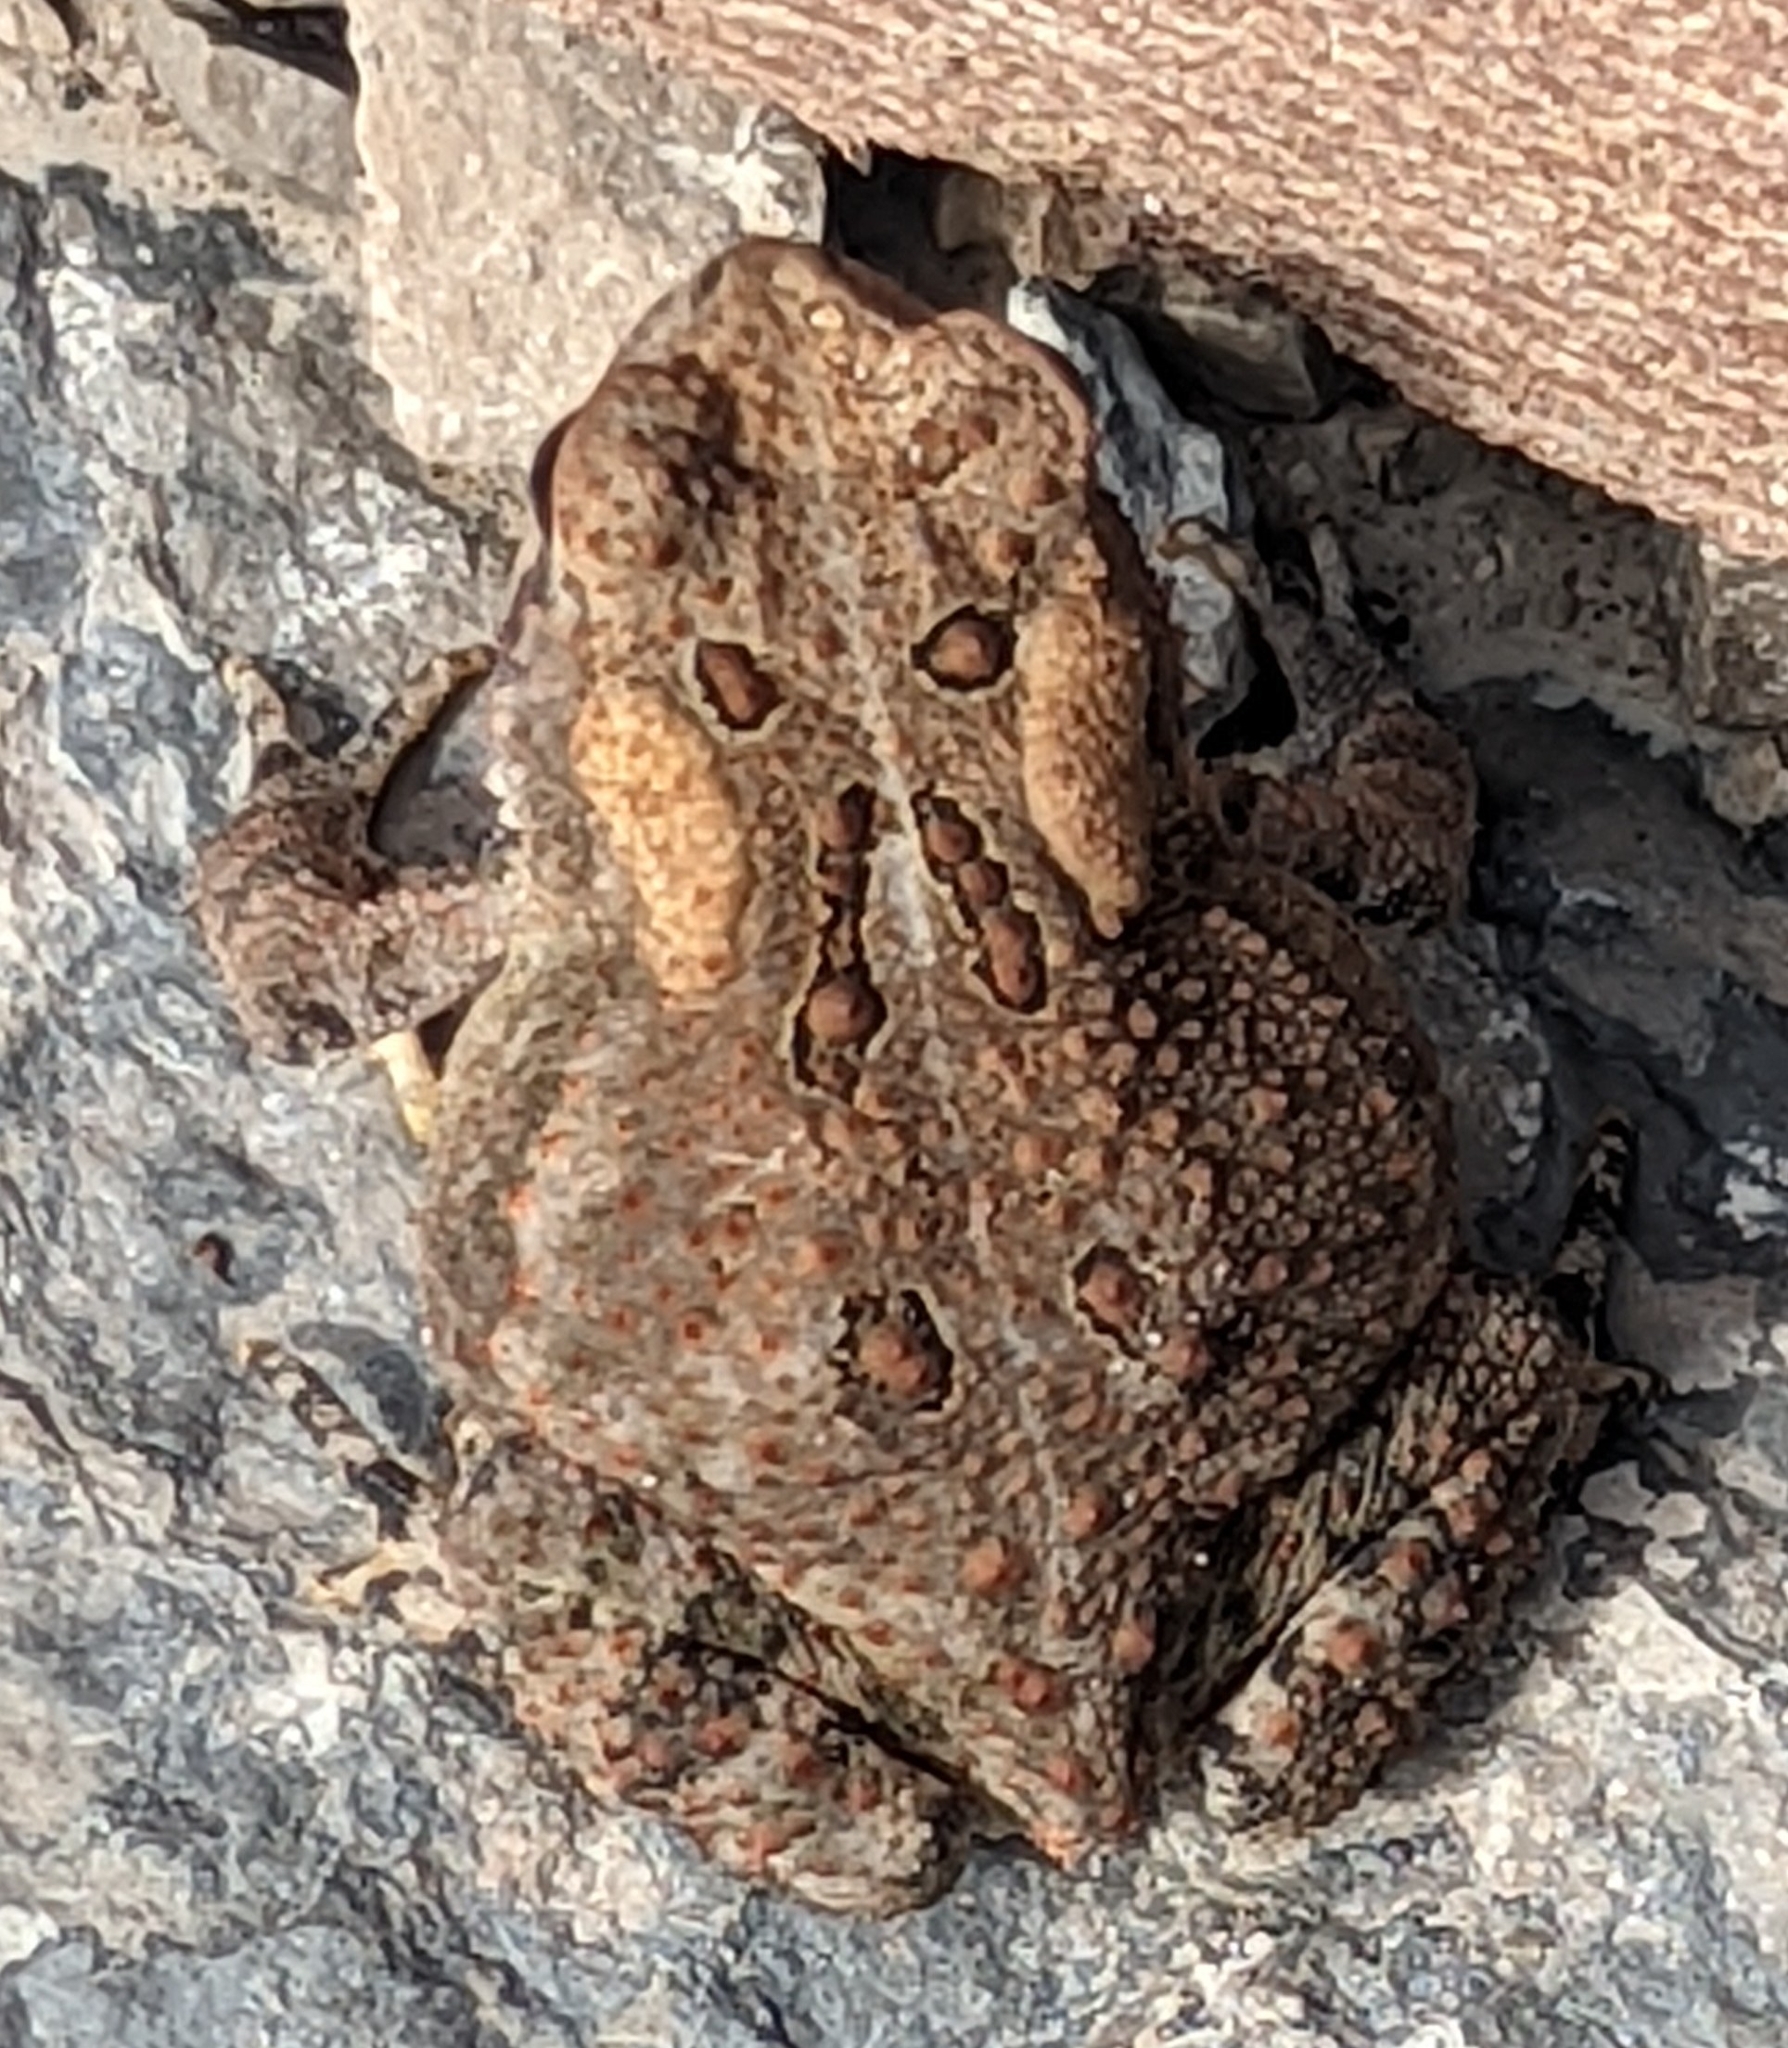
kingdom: Animalia
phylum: Chordata
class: Amphibia
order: Anura
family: Bufonidae
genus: Anaxyrus
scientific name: Anaxyrus americanus
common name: American toad
